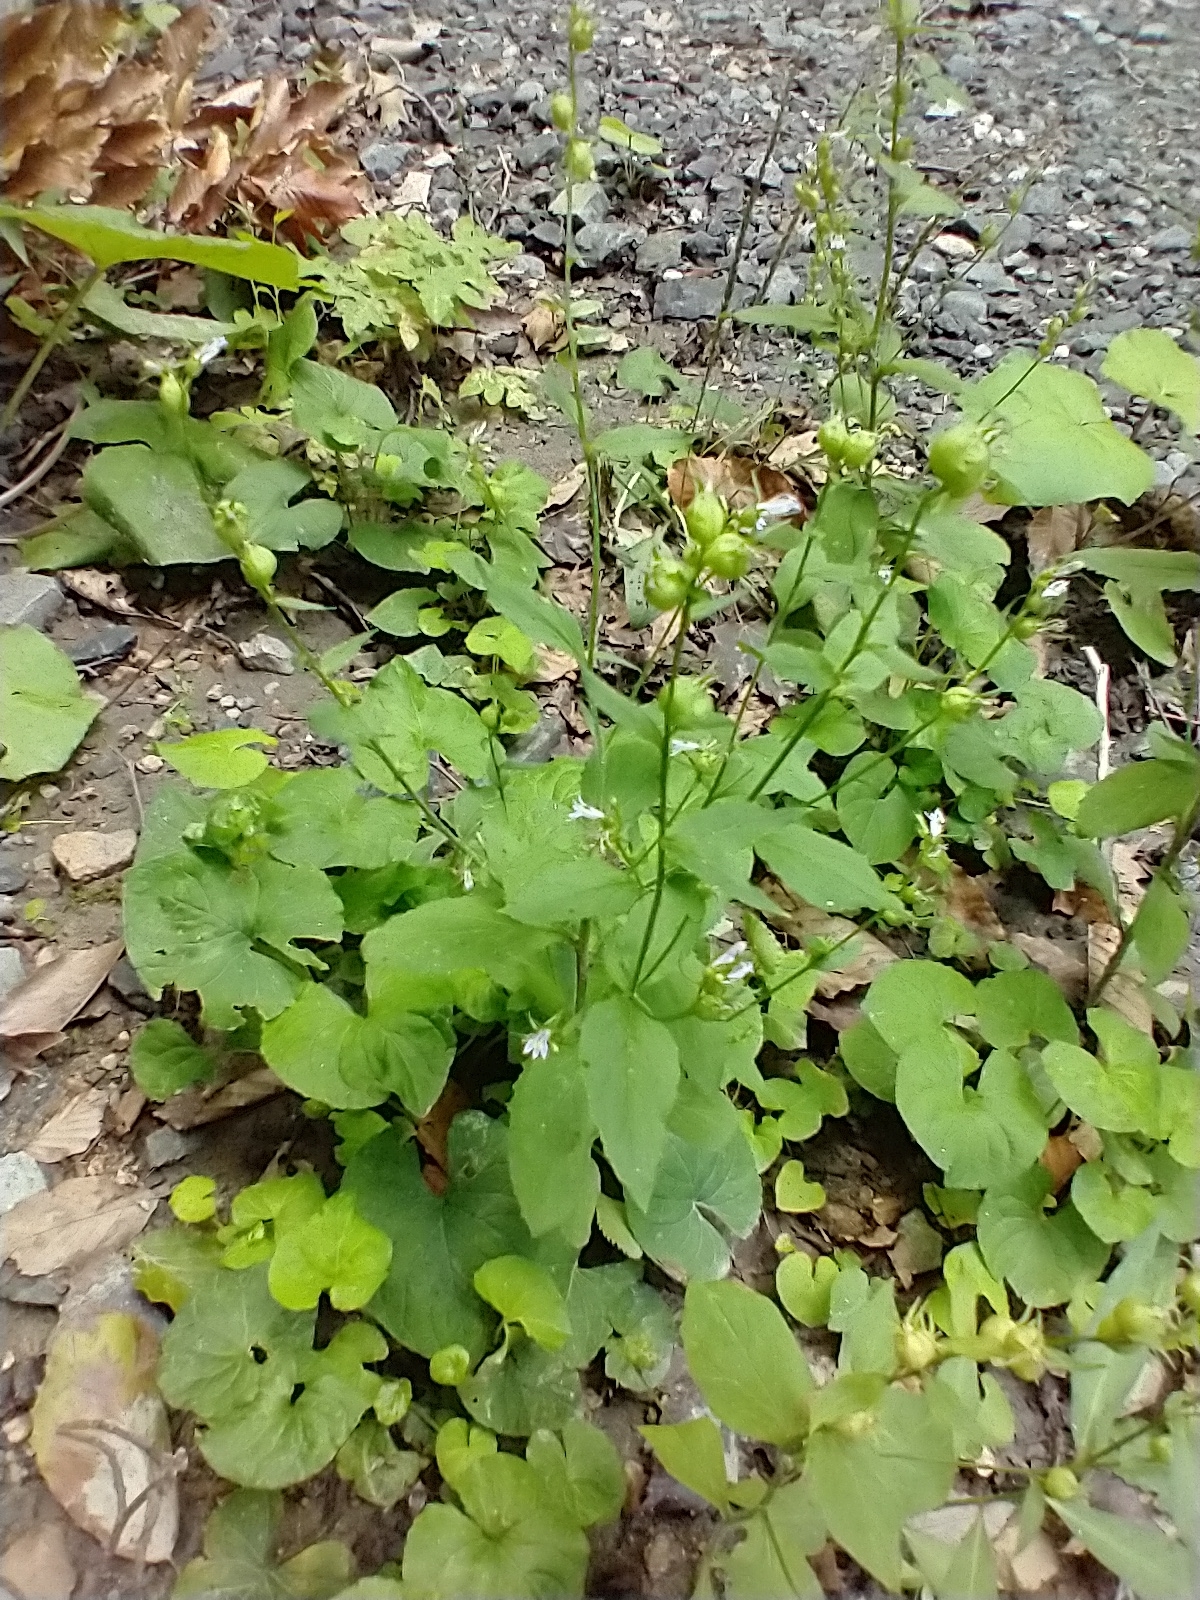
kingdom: Plantae
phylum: Tracheophyta
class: Magnoliopsida
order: Asterales
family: Campanulaceae
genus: Lobelia
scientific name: Lobelia inflata
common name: Indian tobacco
